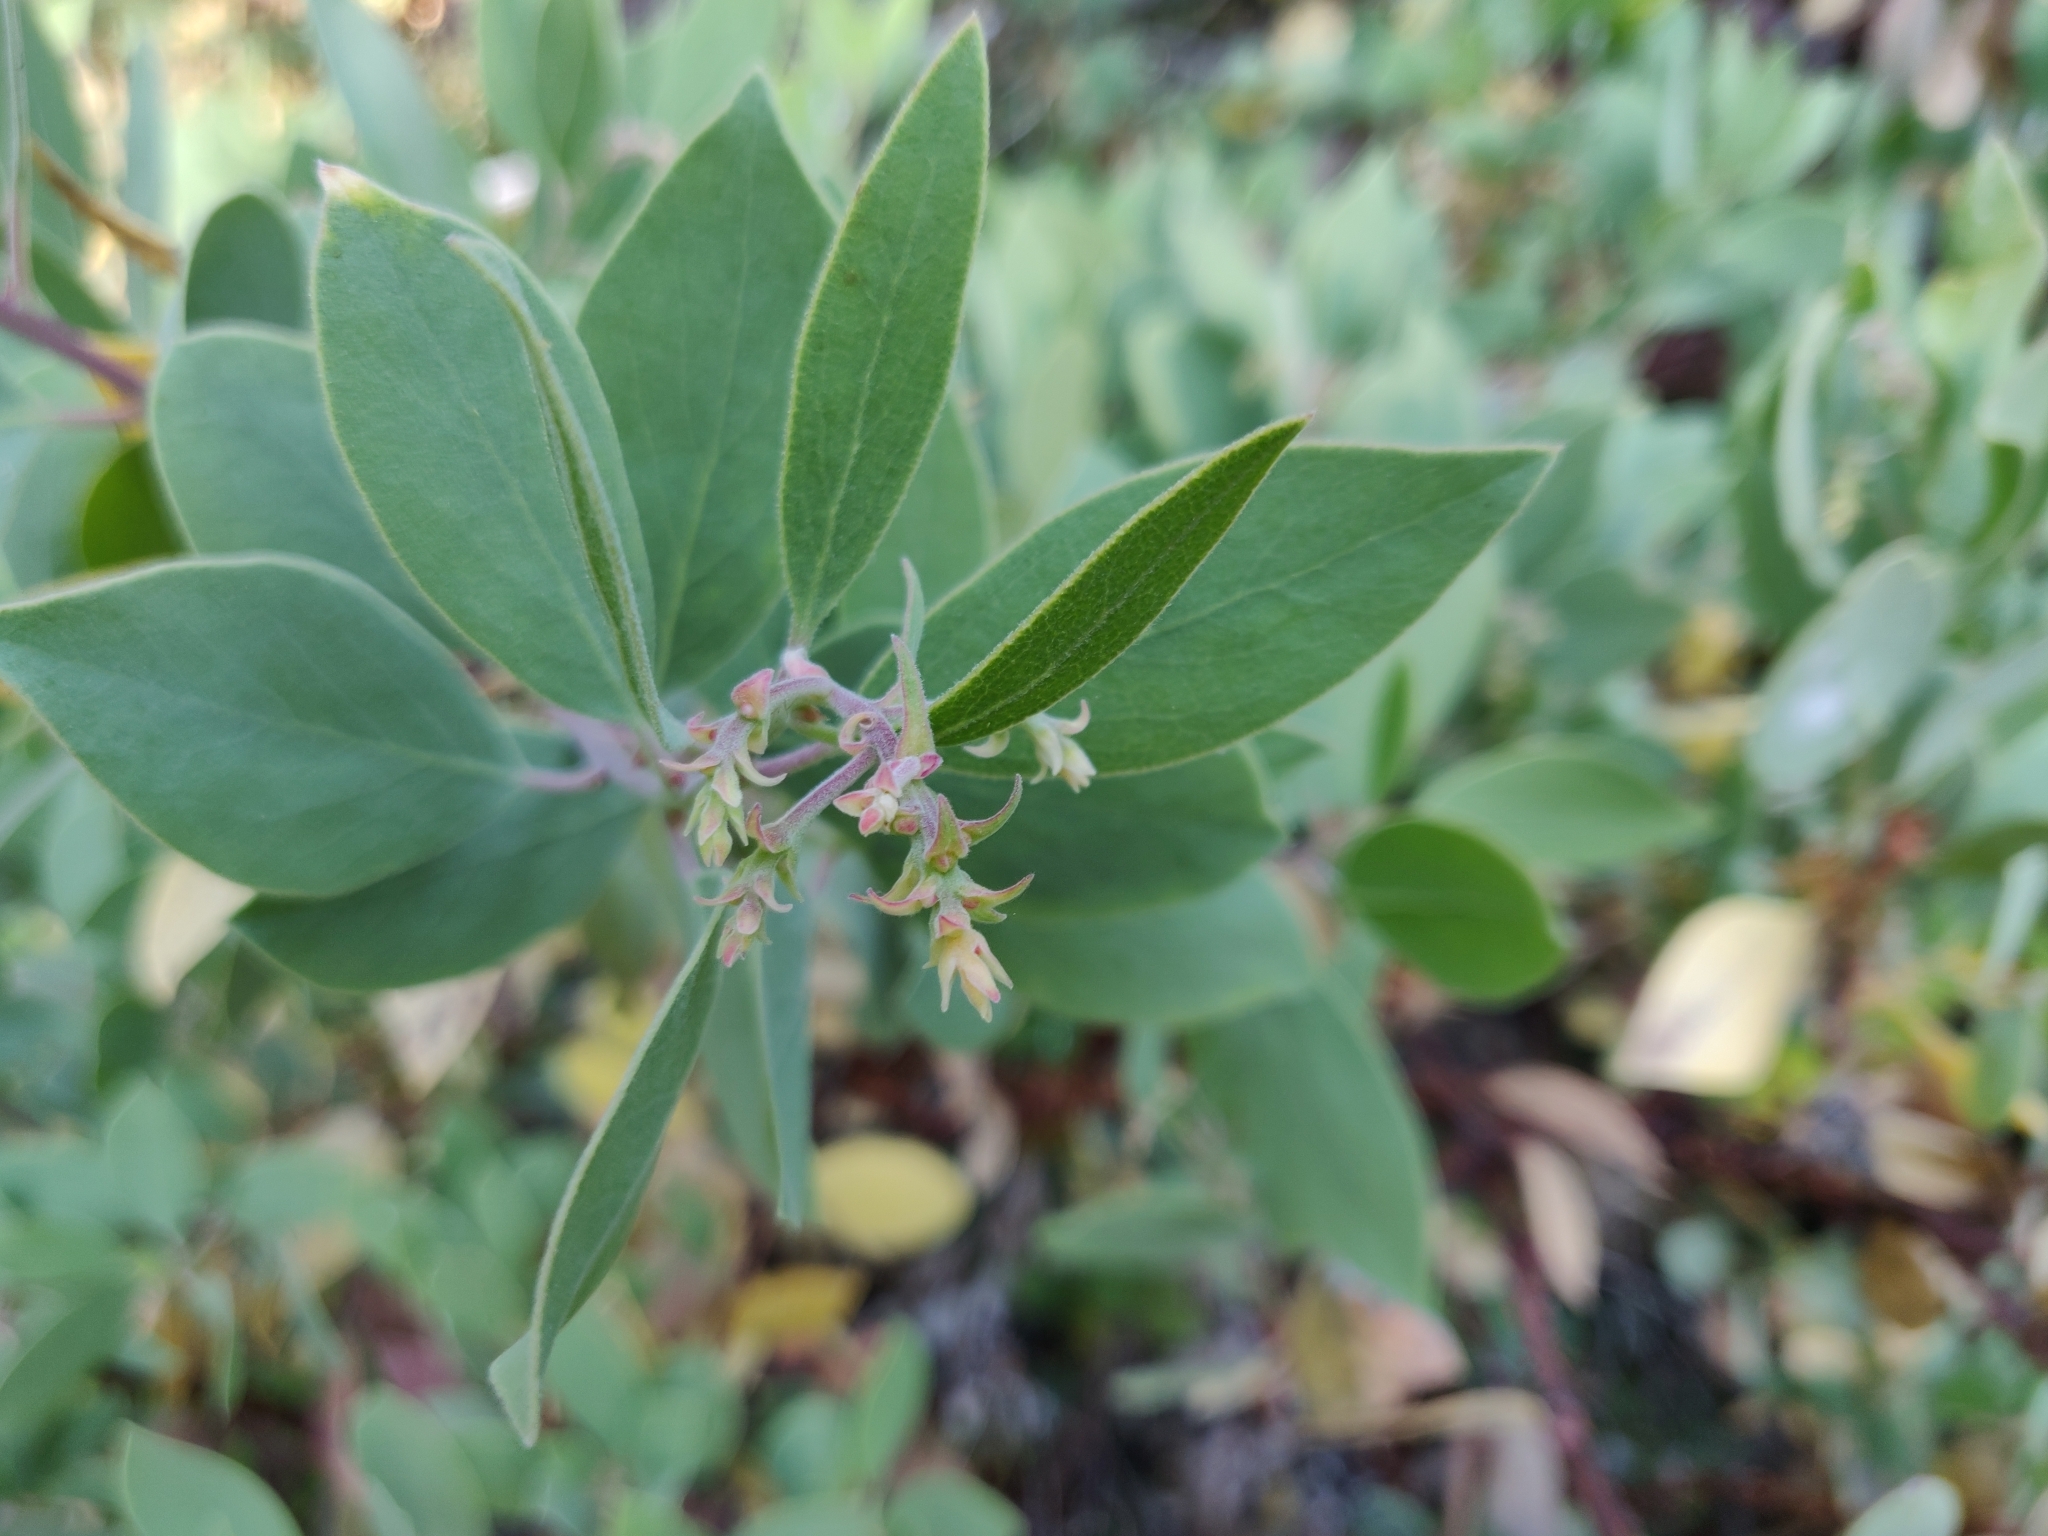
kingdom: Plantae
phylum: Tracheophyta
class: Magnoliopsida
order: Ericales
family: Ericaceae
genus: Arctostaphylos
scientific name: Arctostaphylos mewukka
